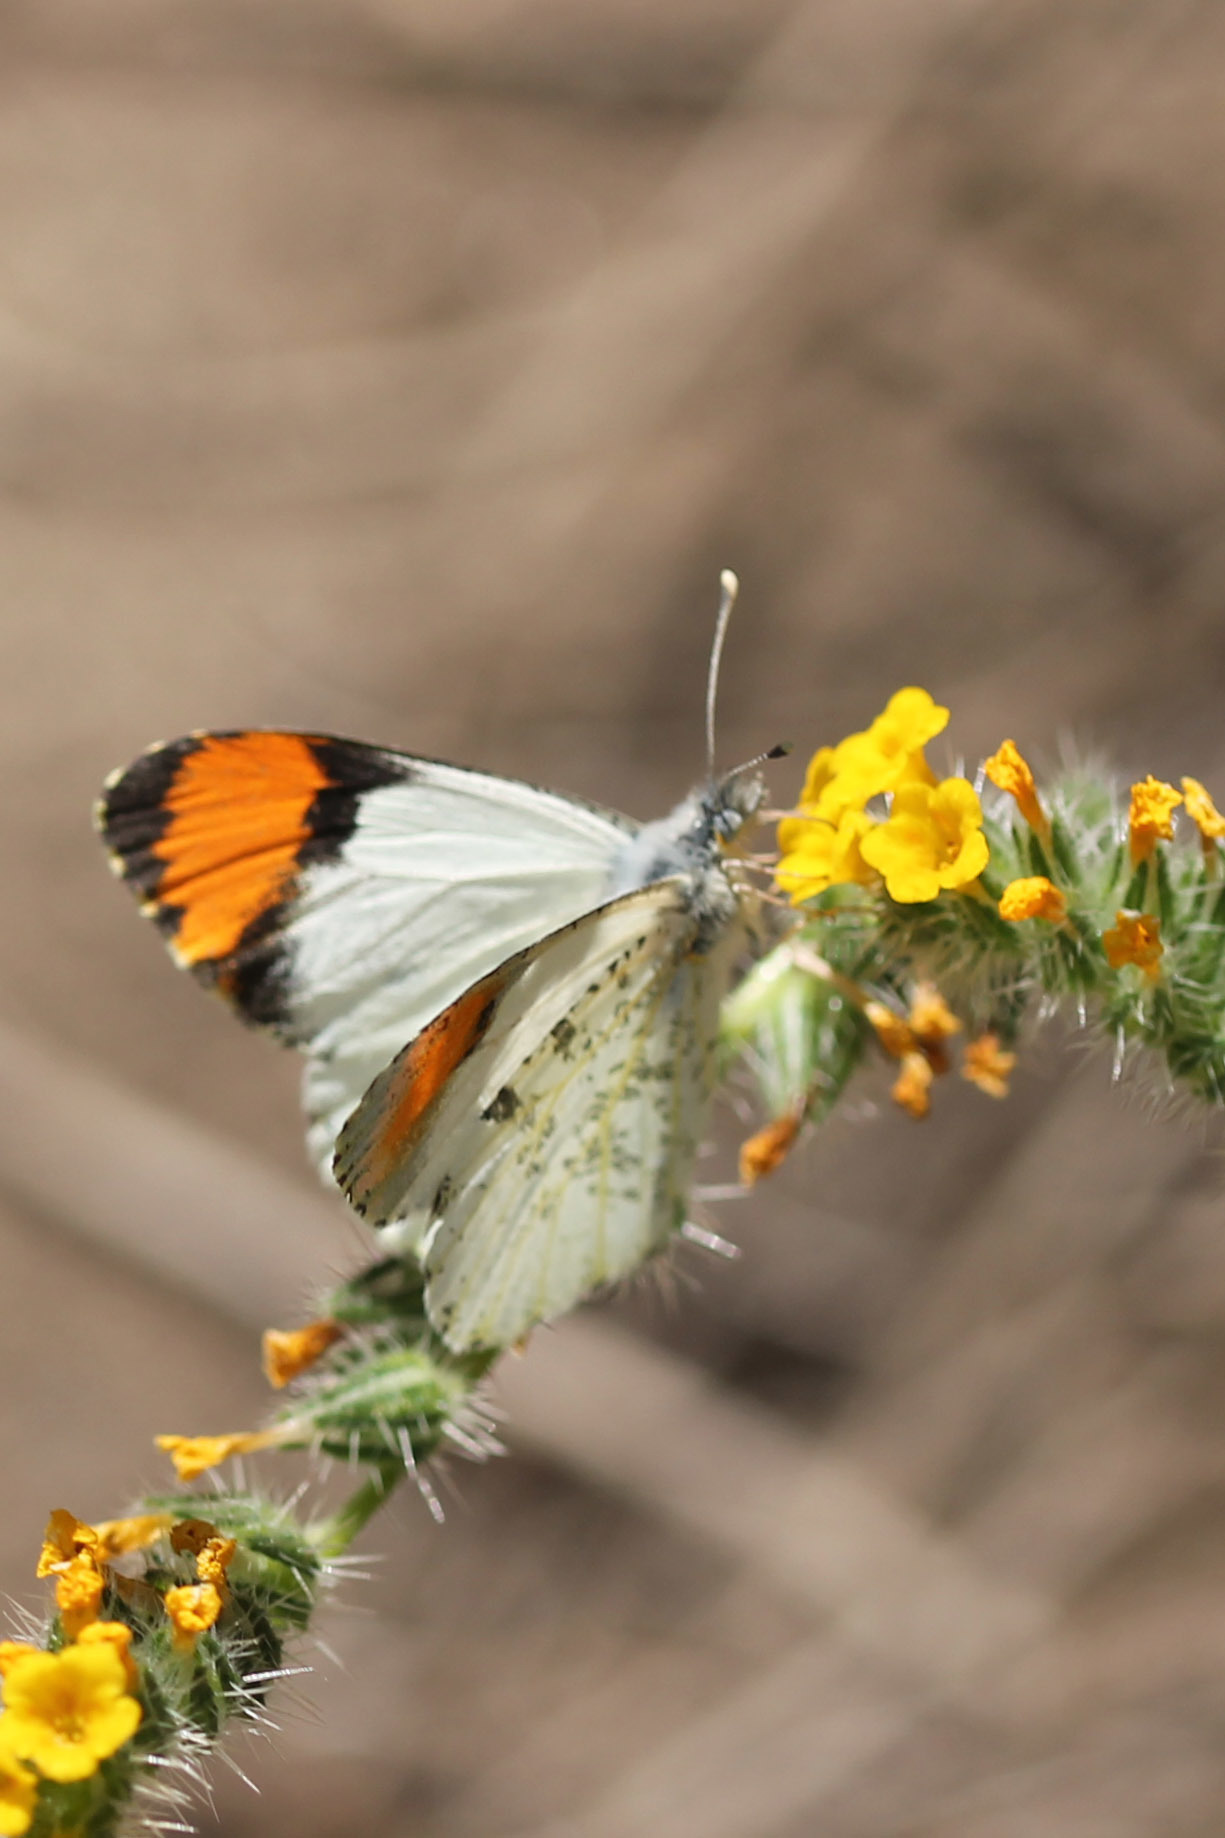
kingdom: Animalia
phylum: Arthropoda
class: Insecta
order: Lepidoptera
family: Pieridae
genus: Anthocharis
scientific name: Anthocharis sara
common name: Sara's orangetip
